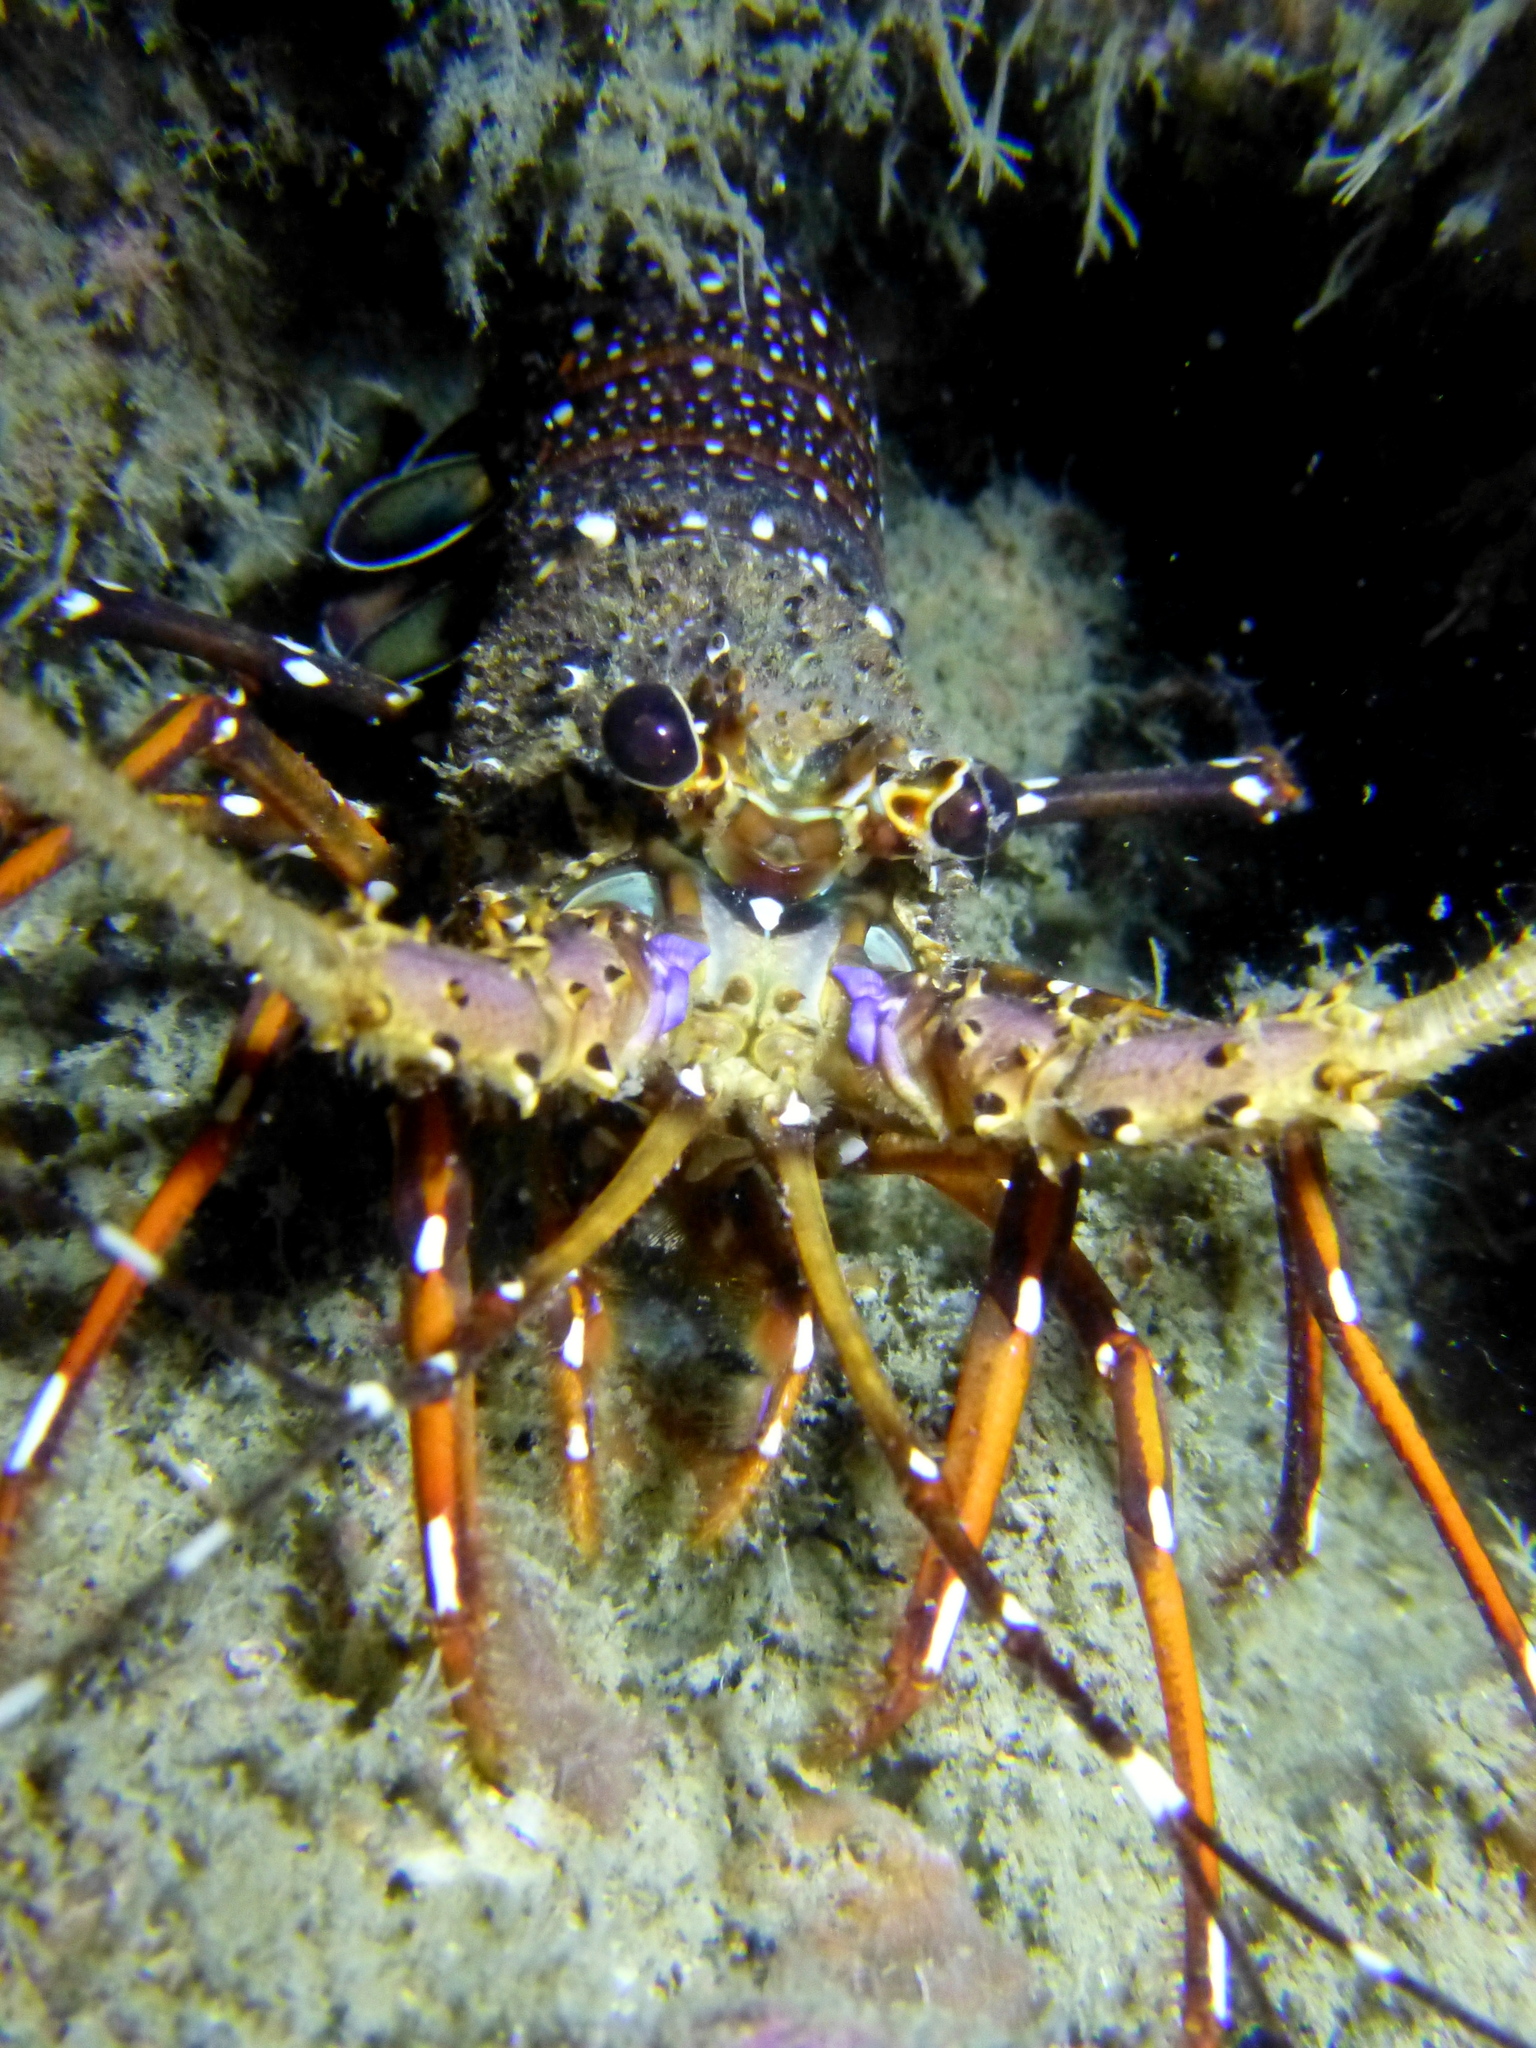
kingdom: Animalia
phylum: Arthropoda
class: Malacostraca
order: Decapoda
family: Palinuridae
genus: Panulirus
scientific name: Panulirus longipes
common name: Longlegged spiny lobster
